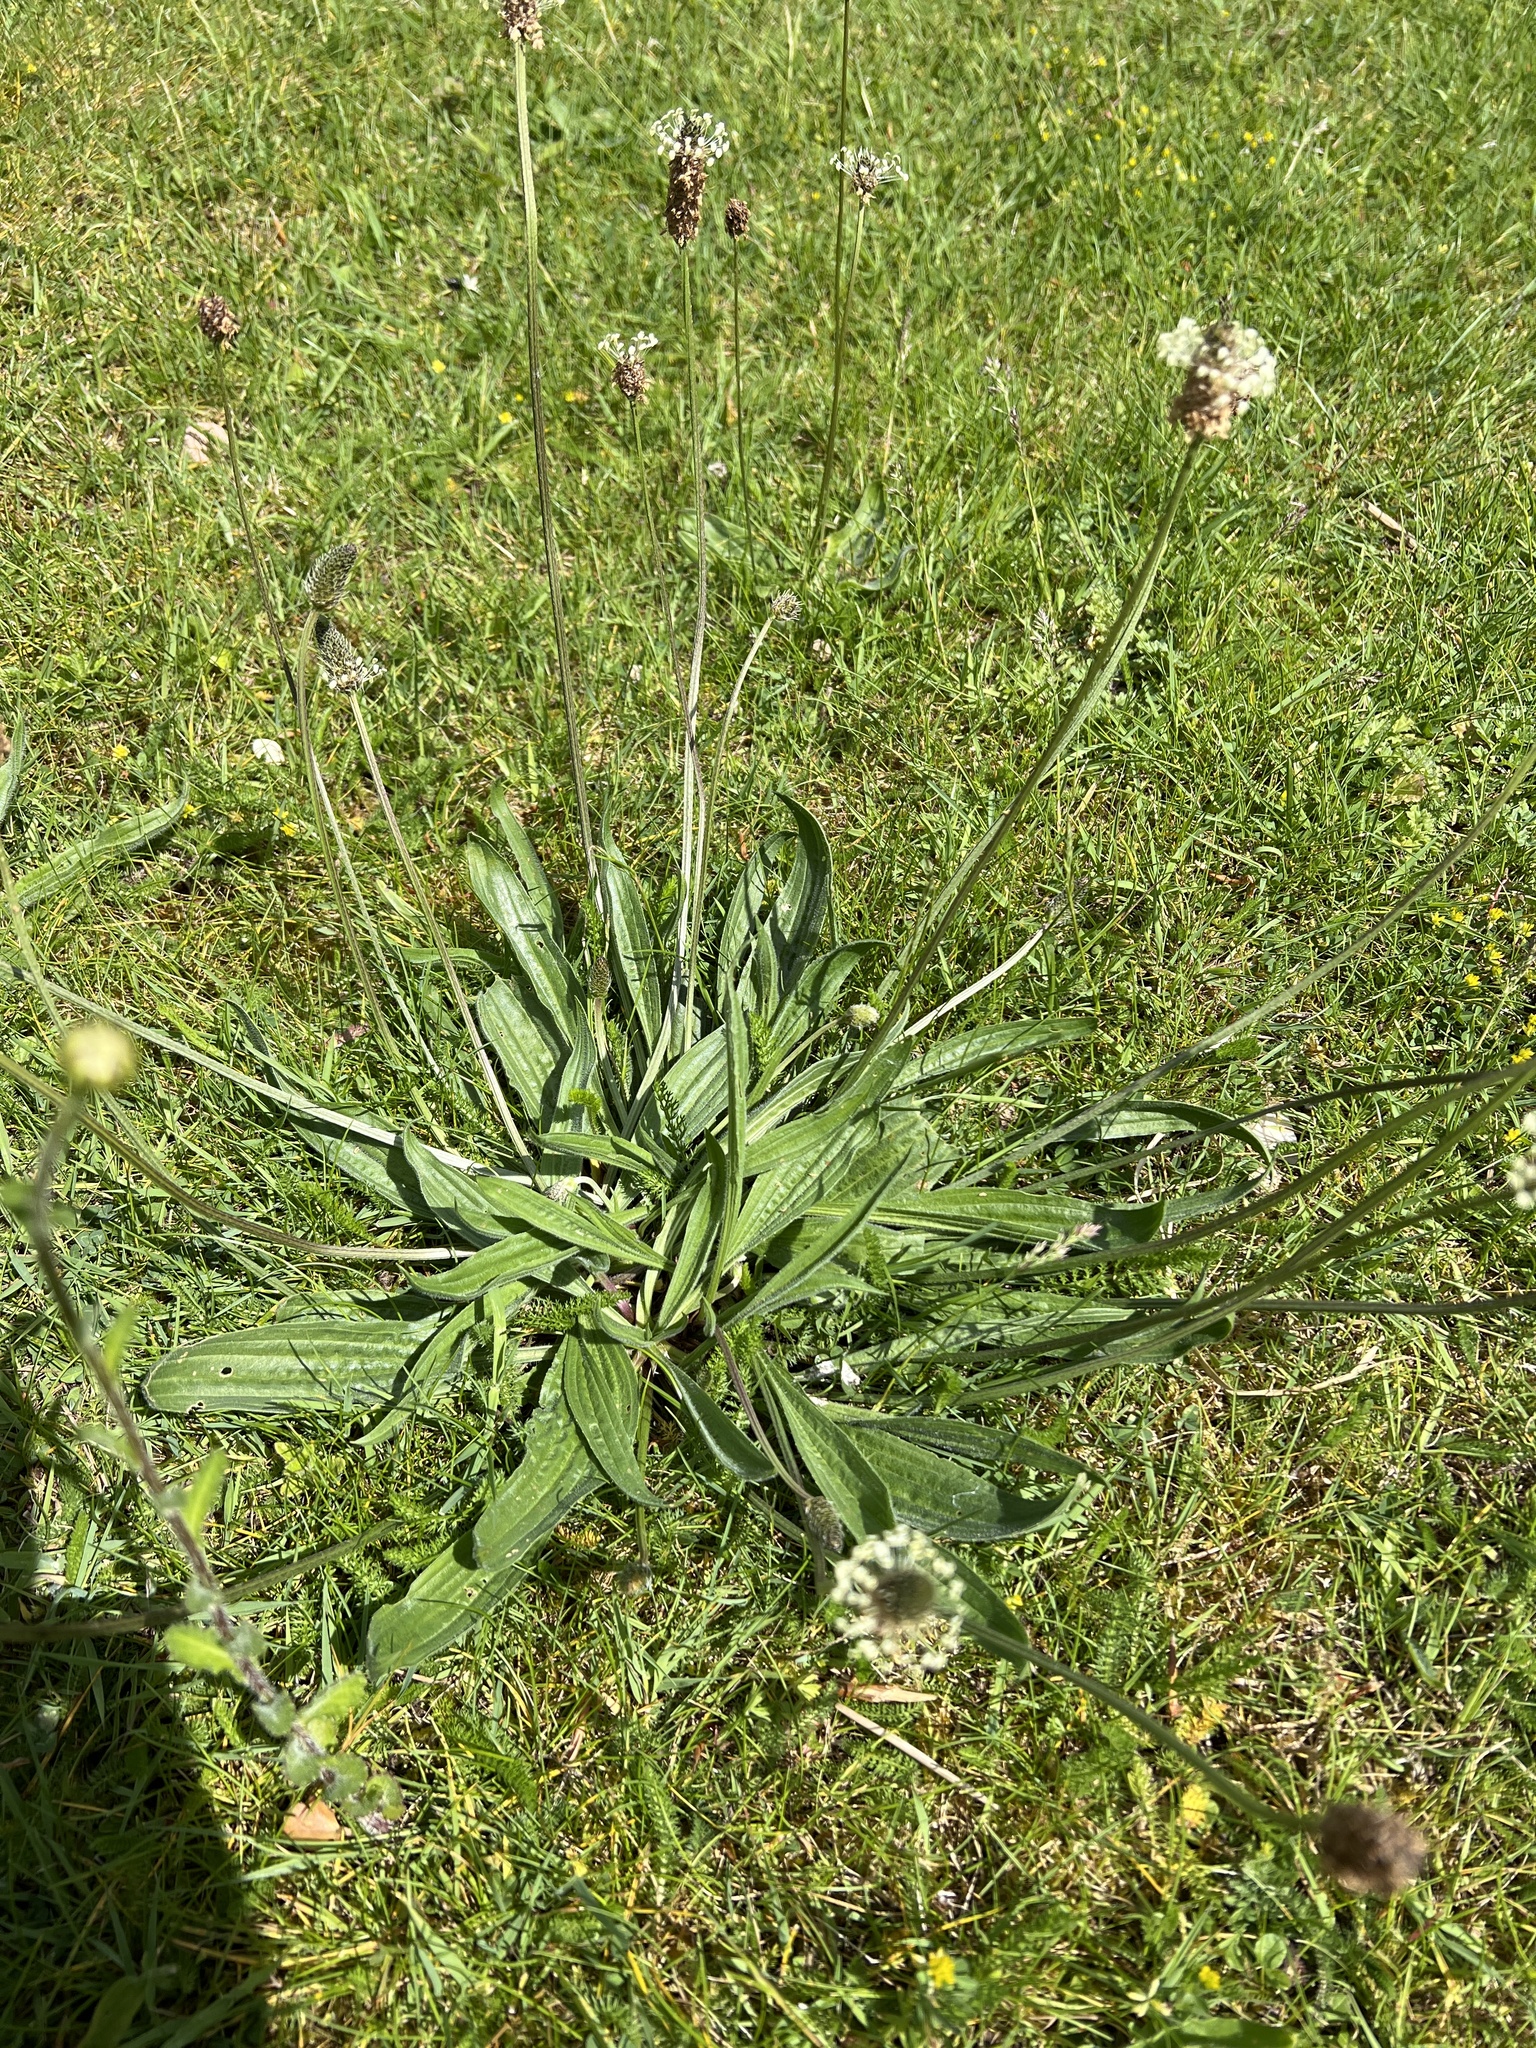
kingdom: Plantae
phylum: Tracheophyta
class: Magnoliopsida
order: Lamiales
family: Plantaginaceae
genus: Plantago
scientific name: Plantago lanceolata
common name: Ribwort plantain
